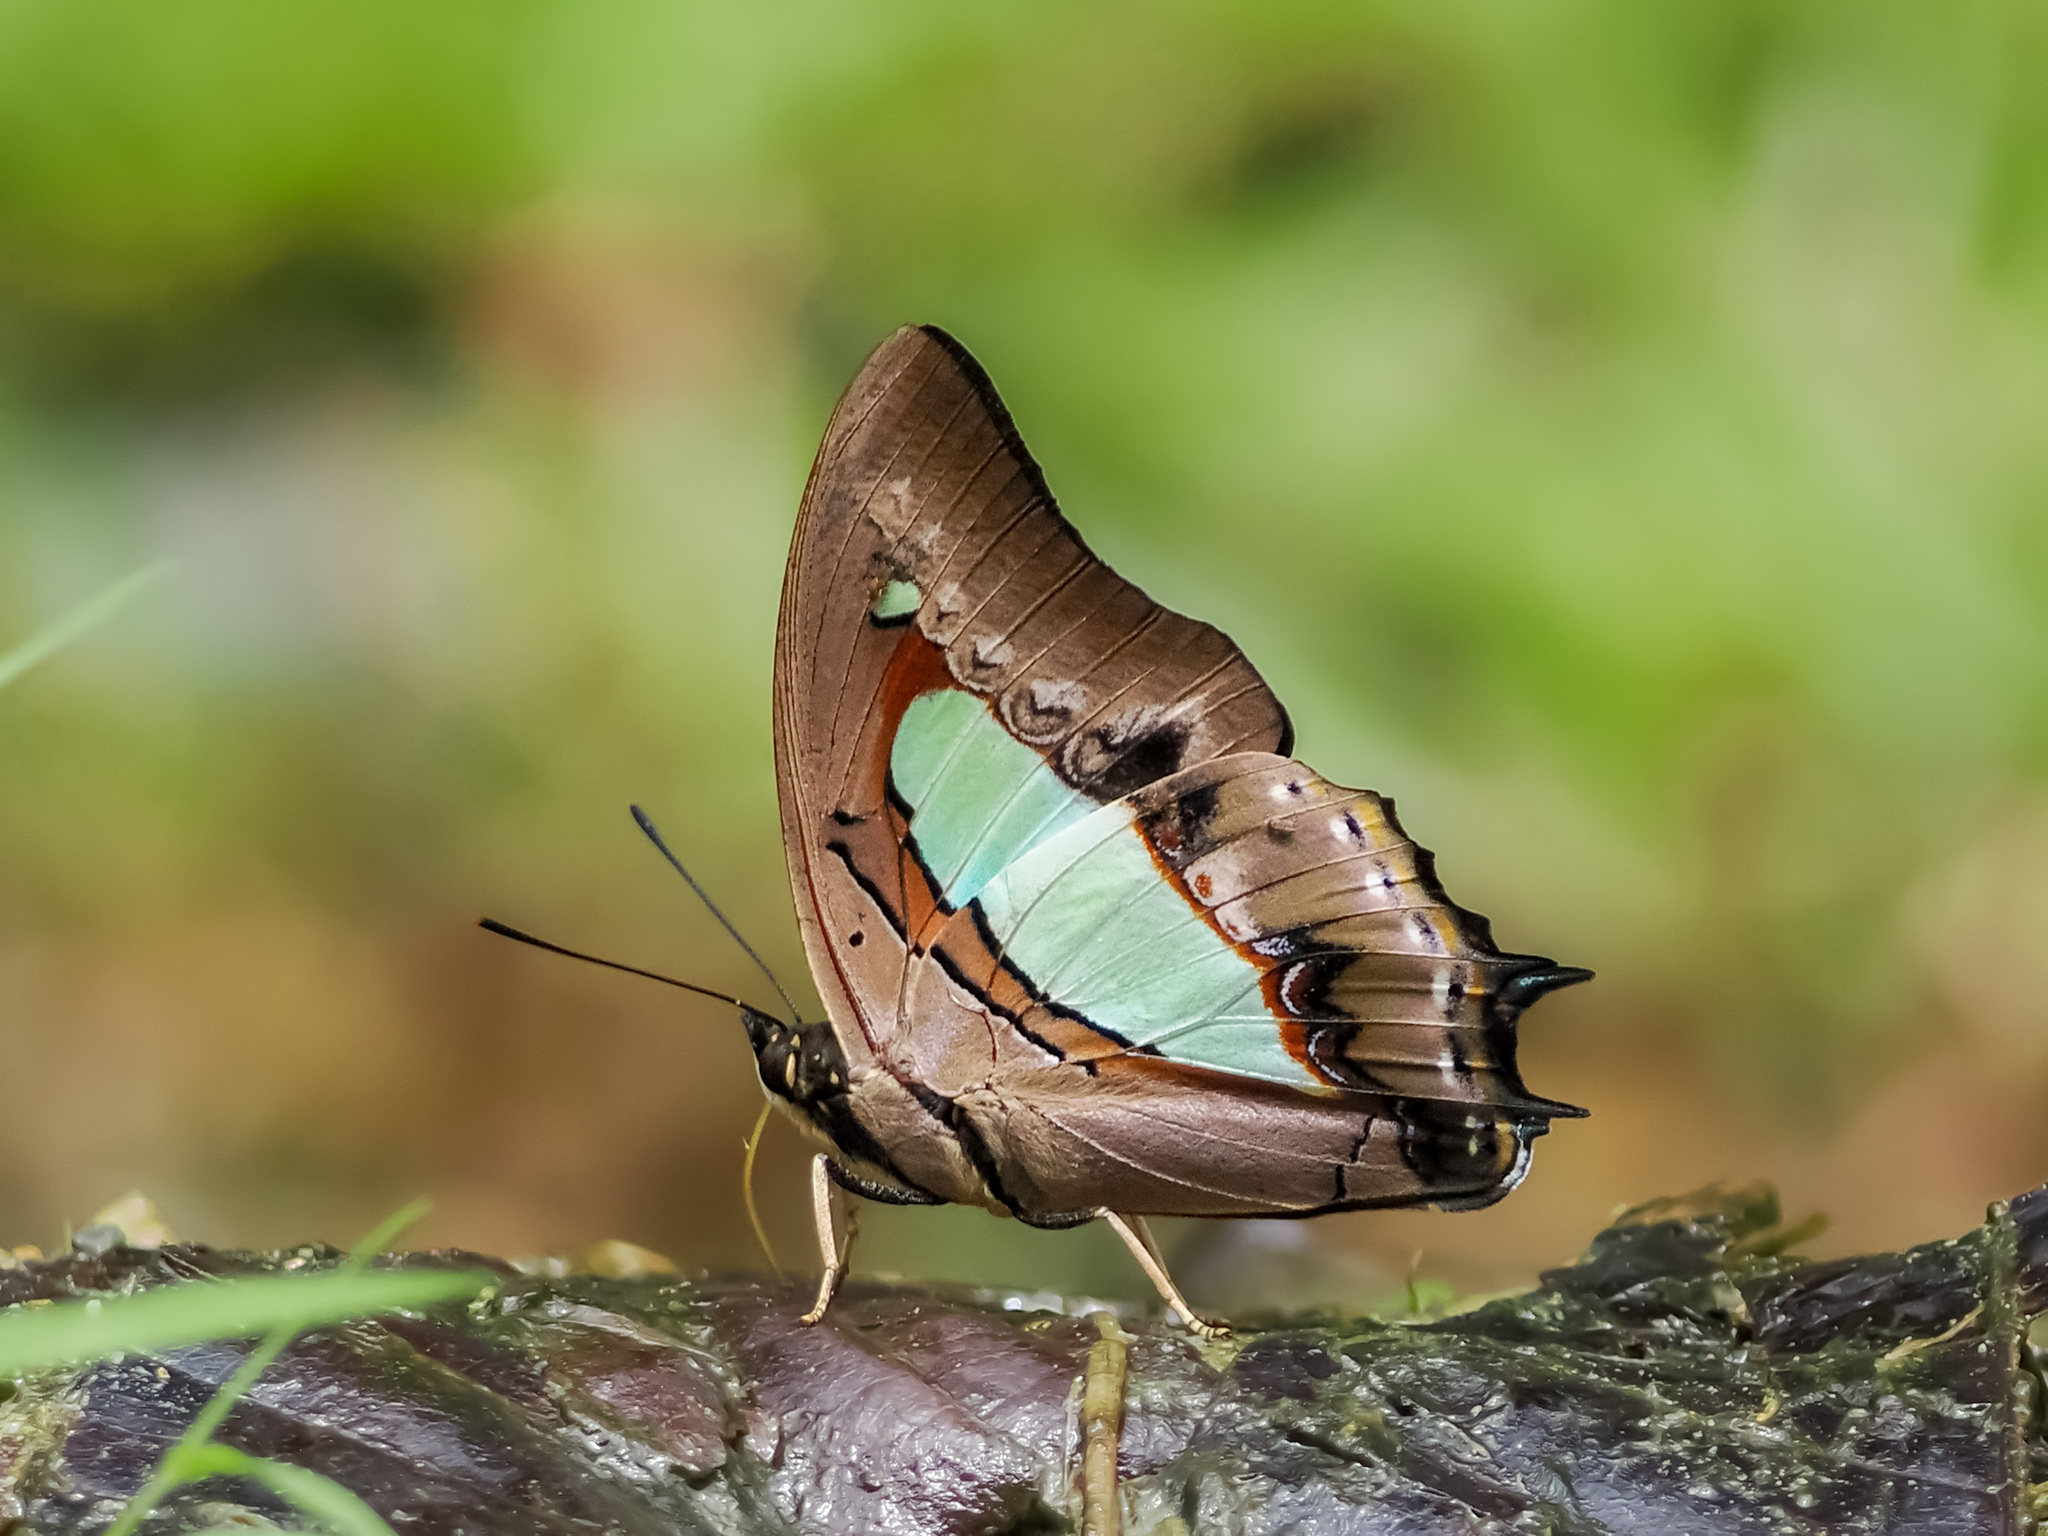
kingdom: Animalia
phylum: Arthropoda
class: Insecta
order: Lepidoptera
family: Nymphalidae
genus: Polyura
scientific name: Polyura athamas
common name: Common nawab
